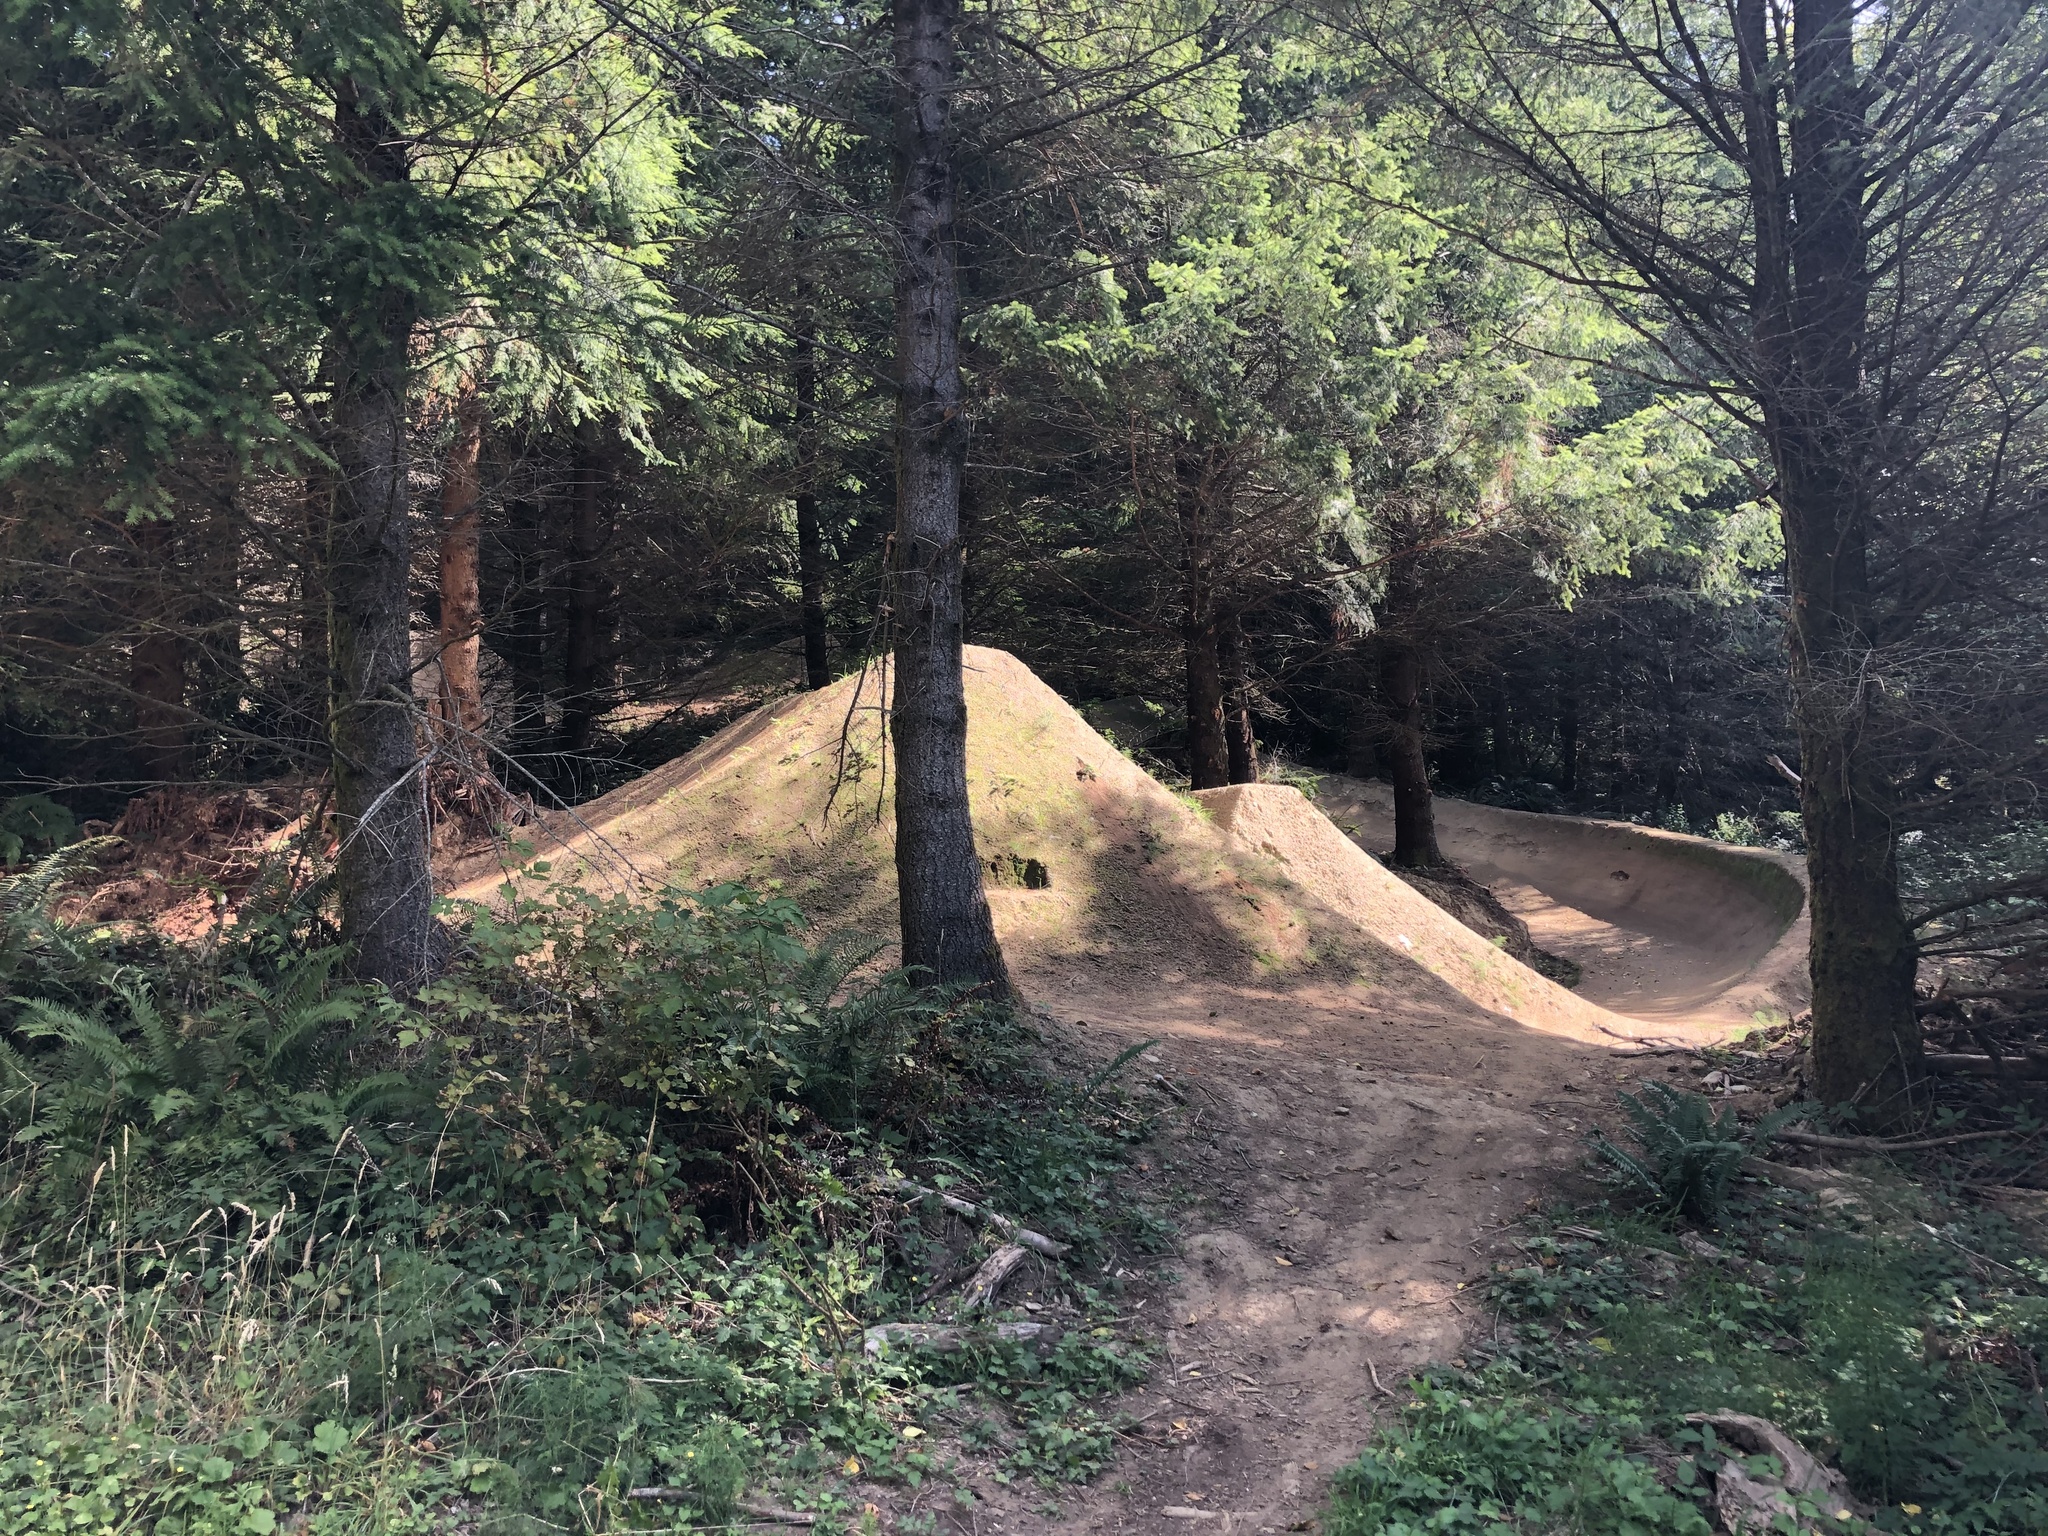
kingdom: Plantae
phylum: Tracheophyta
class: Pinopsida
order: Pinales
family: Pinaceae
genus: Pseudotsuga
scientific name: Pseudotsuga menziesii
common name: Douglas fir
